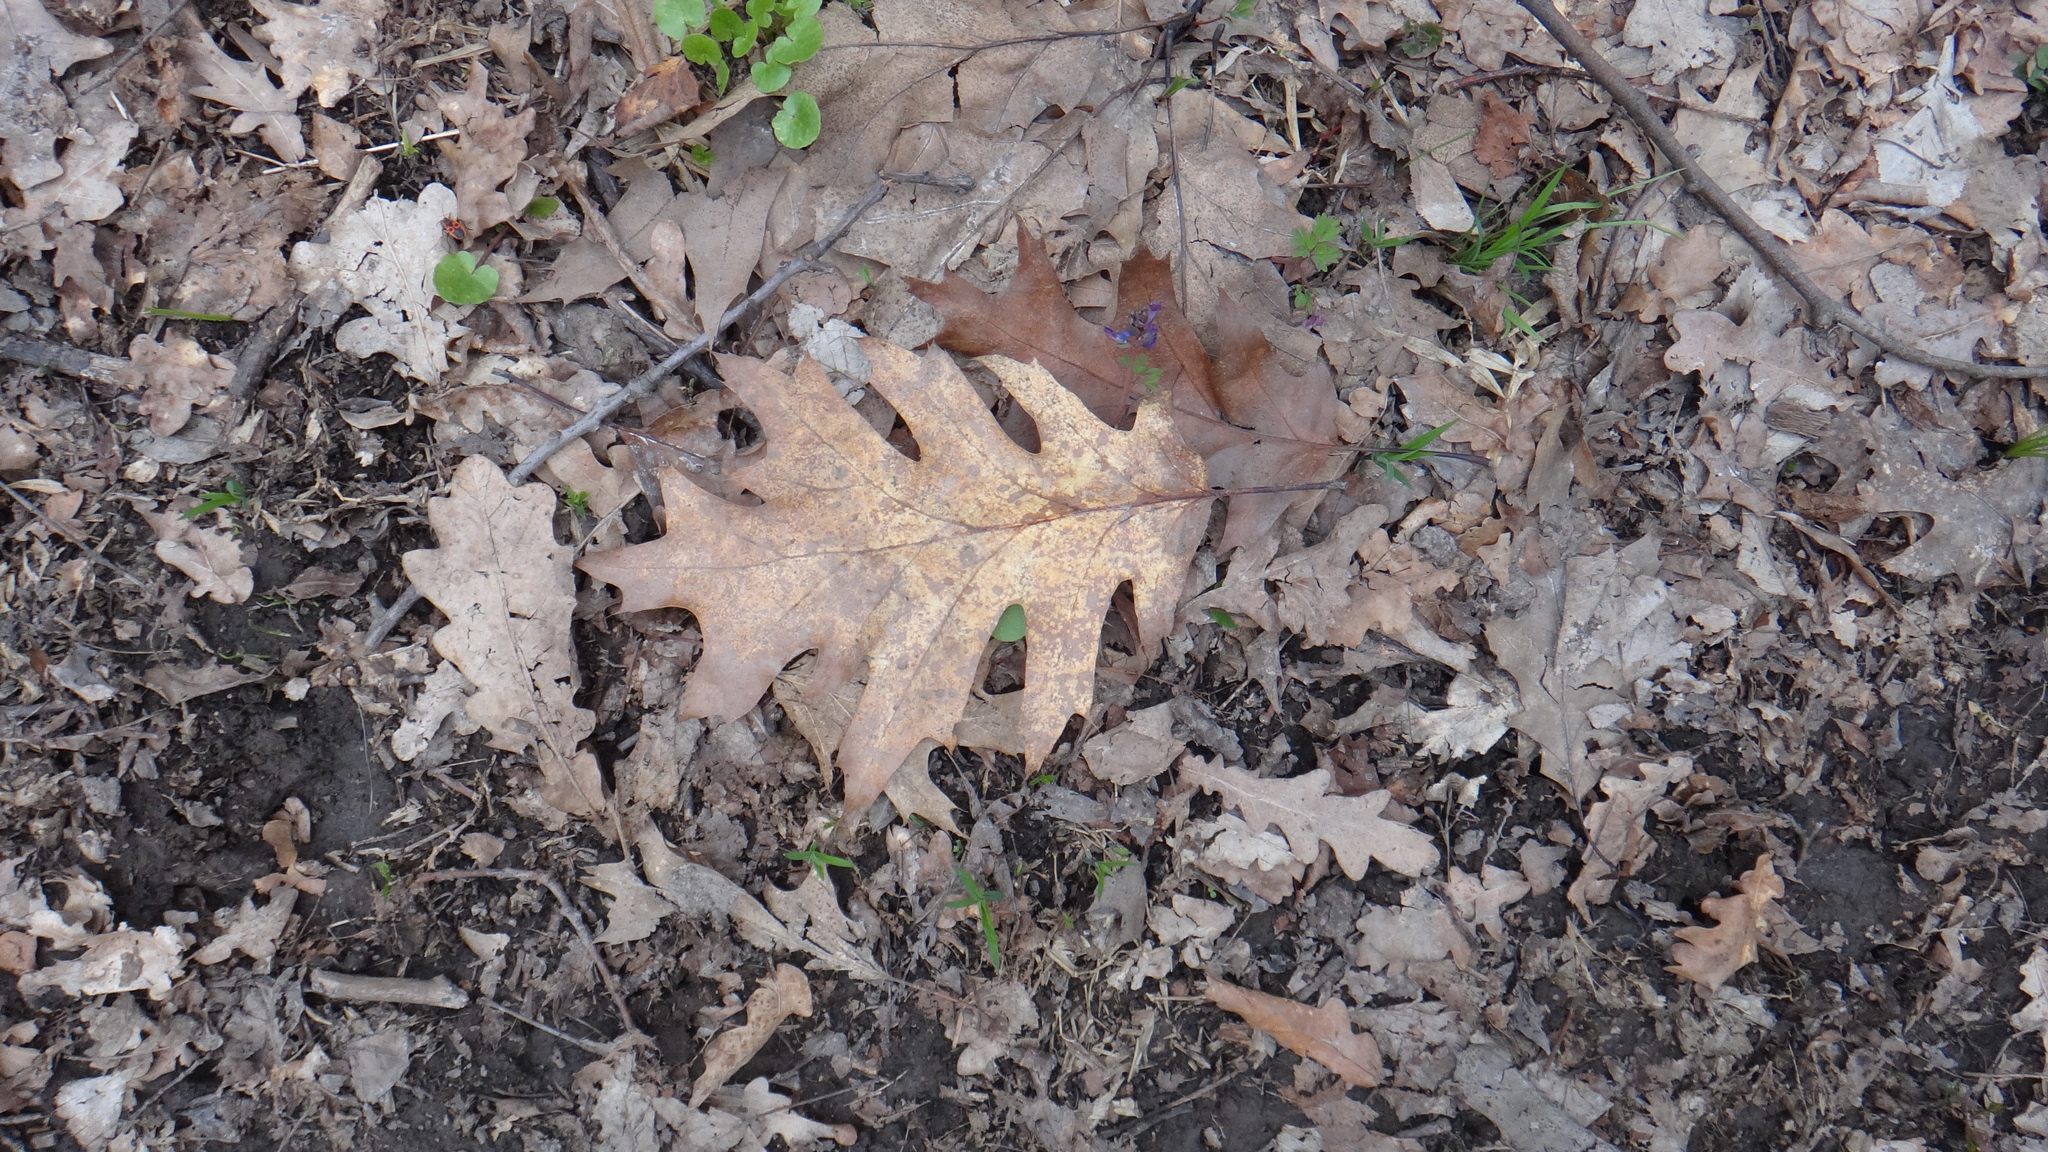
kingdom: Plantae
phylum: Tracheophyta
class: Magnoliopsida
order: Fagales
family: Fagaceae
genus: Quercus
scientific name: Quercus rubra
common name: Red oak
